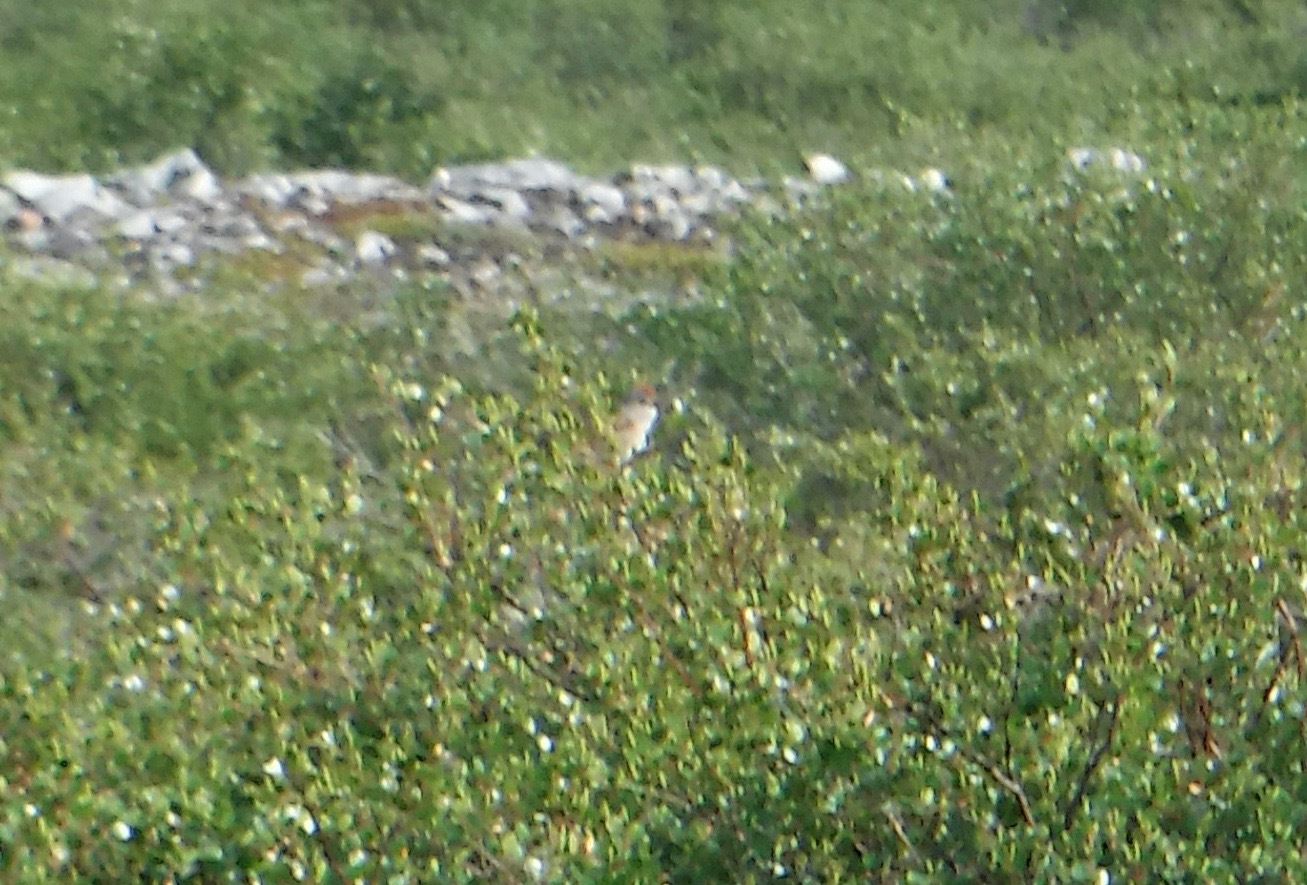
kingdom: Animalia
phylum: Chordata
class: Aves
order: Passeriformes
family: Passerellidae
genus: Spizelloides
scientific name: Spizelloides arborea
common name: American tree sparrow
